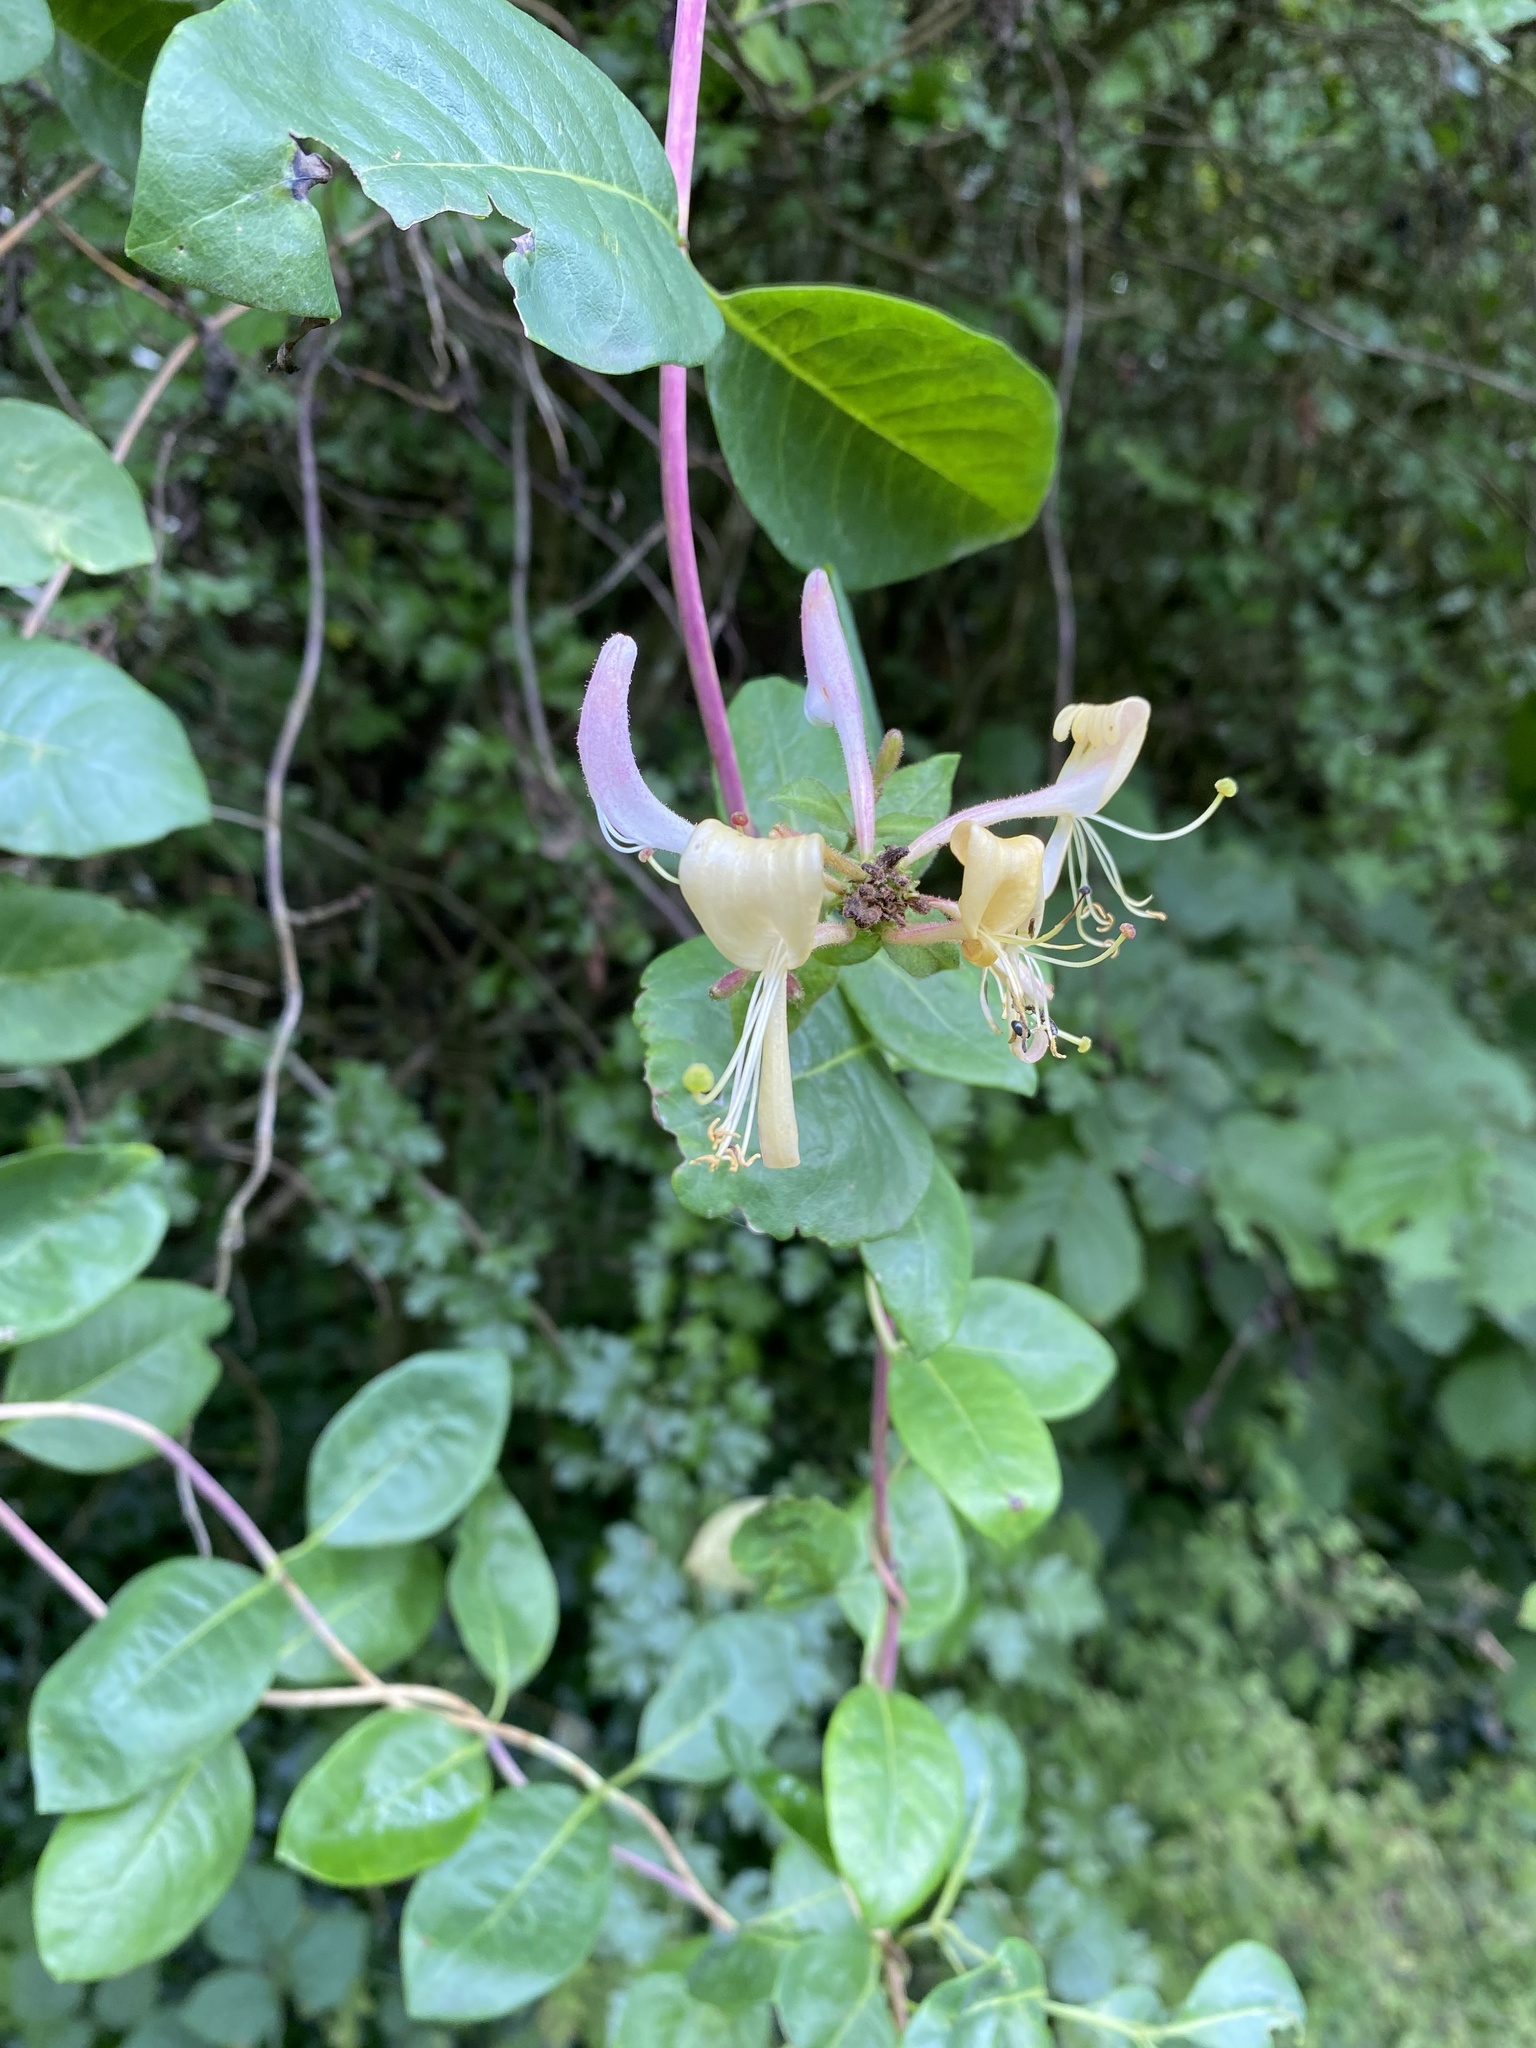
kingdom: Plantae
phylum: Tracheophyta
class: Magnoliopsida
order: Dipsacales
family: Caprifoliaceae
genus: Lonicera
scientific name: Lonicera periclymenum
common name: European honeysuckle
